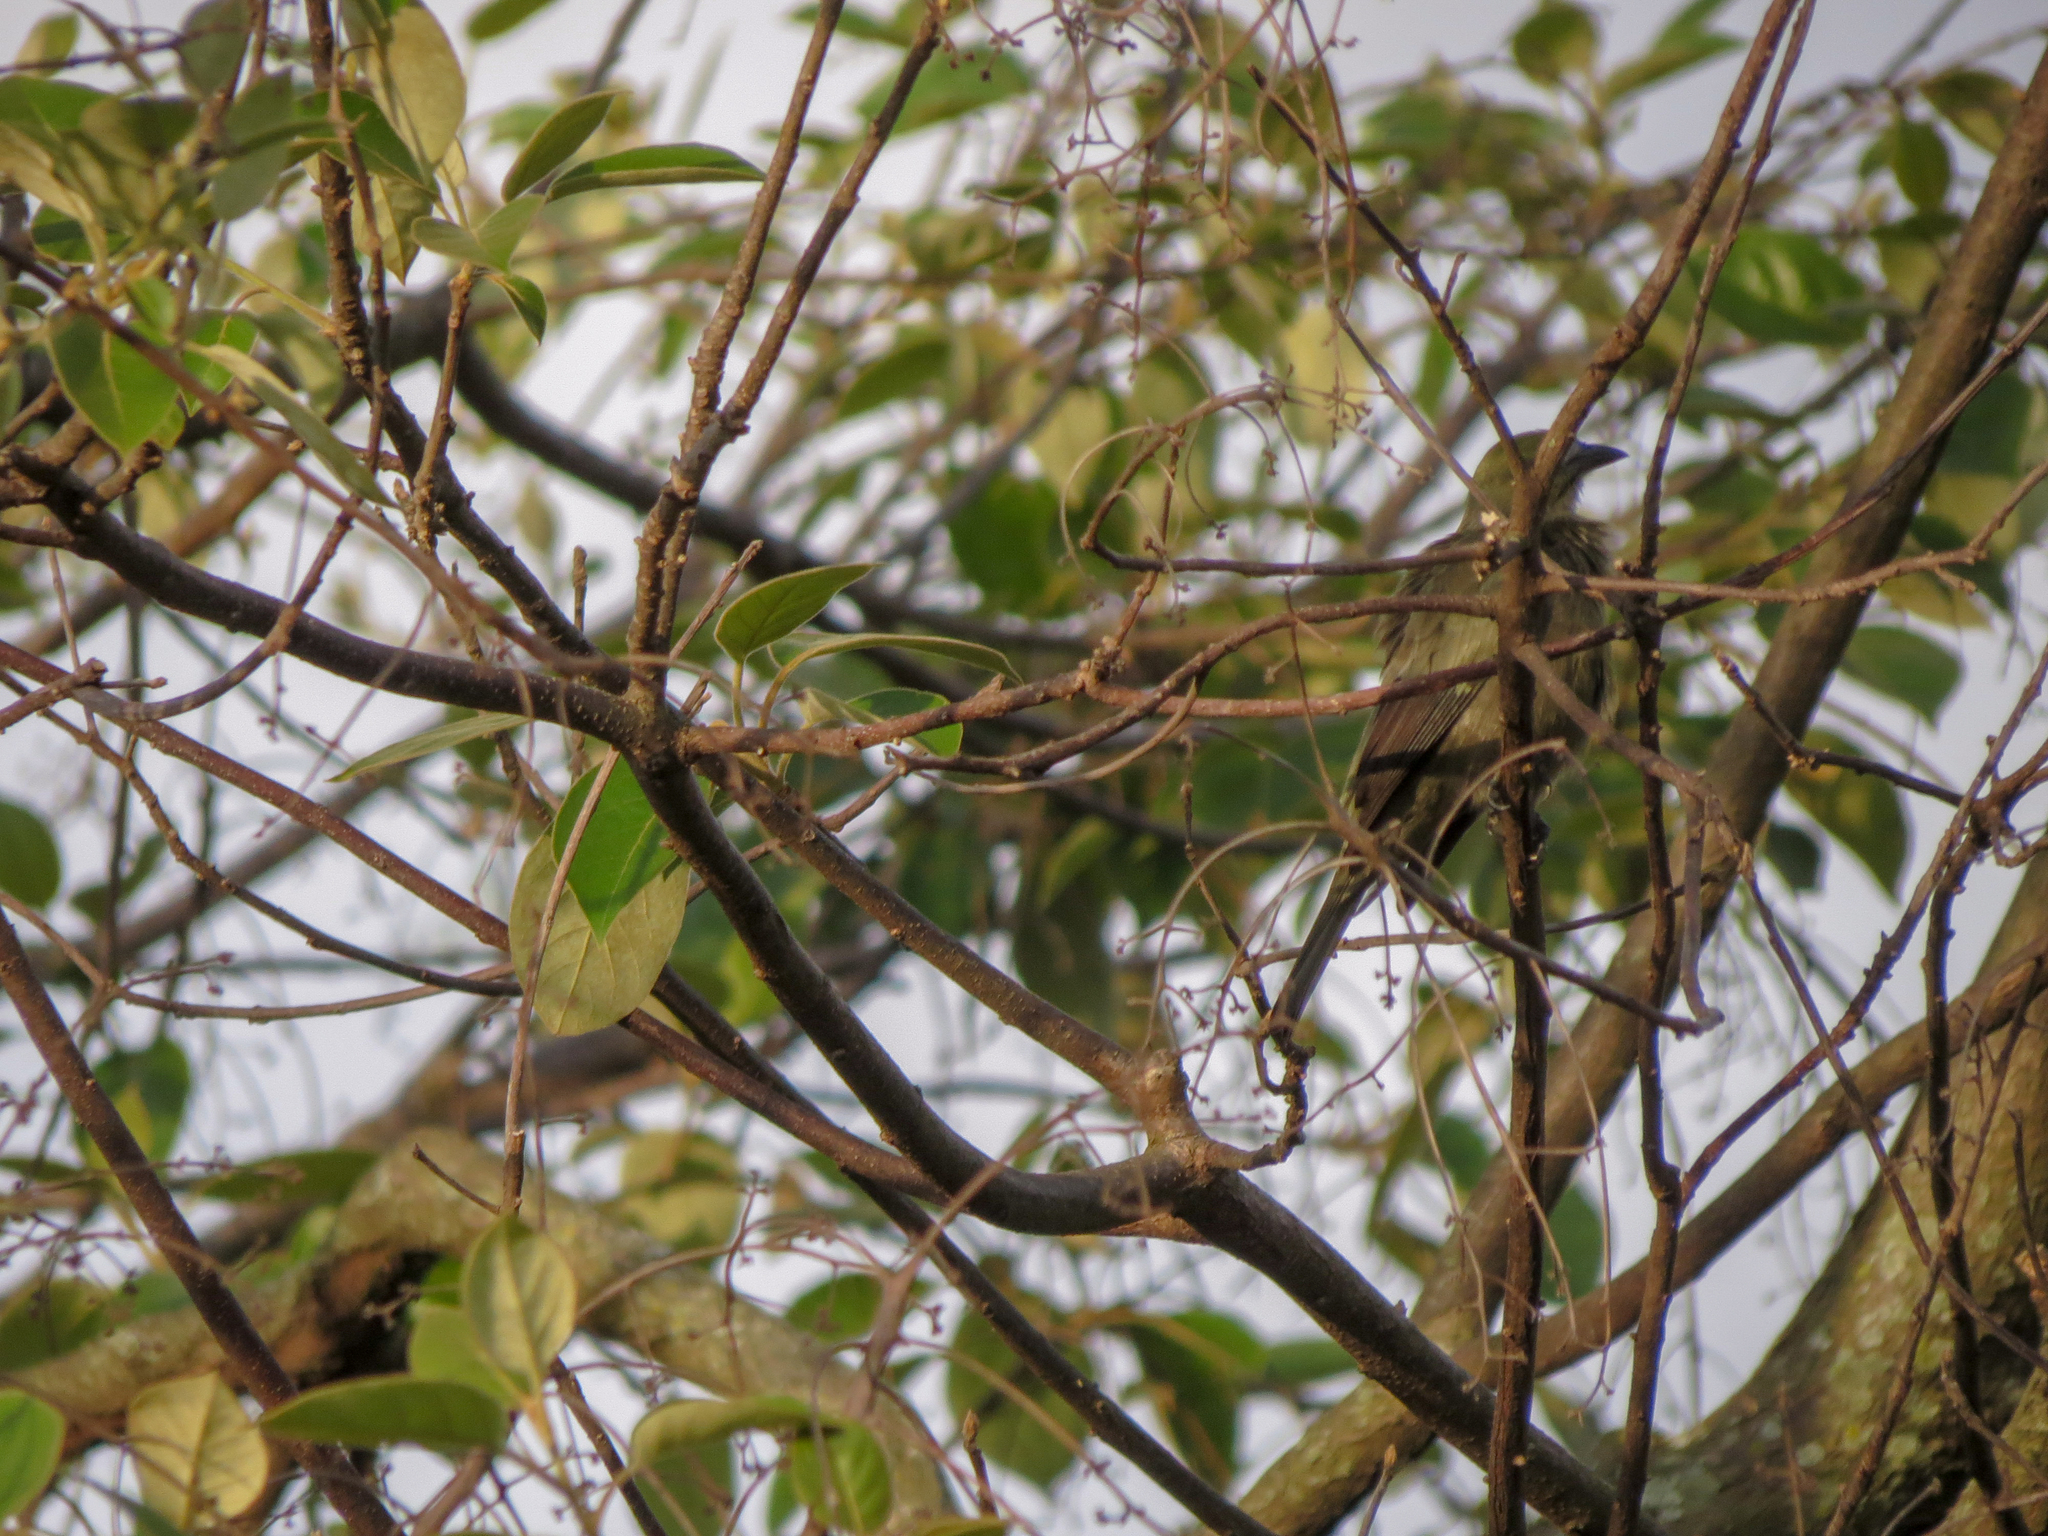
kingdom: Animalia
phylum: Chordata
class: Aves
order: Passeriformes
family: Thraupidae
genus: Thraupis
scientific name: Thraupis palmarum
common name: Palm tanager
